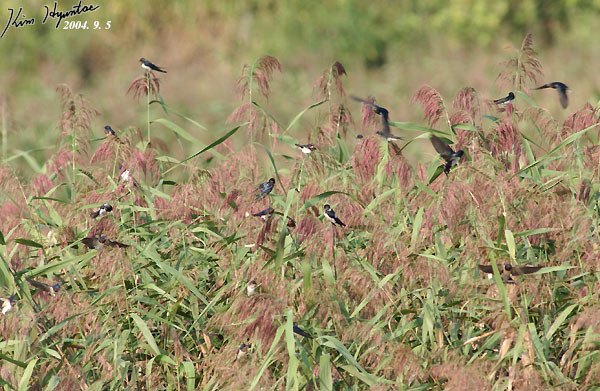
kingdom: Animalia
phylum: Chordata
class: Aves
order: Passeriformes
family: Hirundinidae
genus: Hirundo
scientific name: Hirundo rustica
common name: Barn swallow
